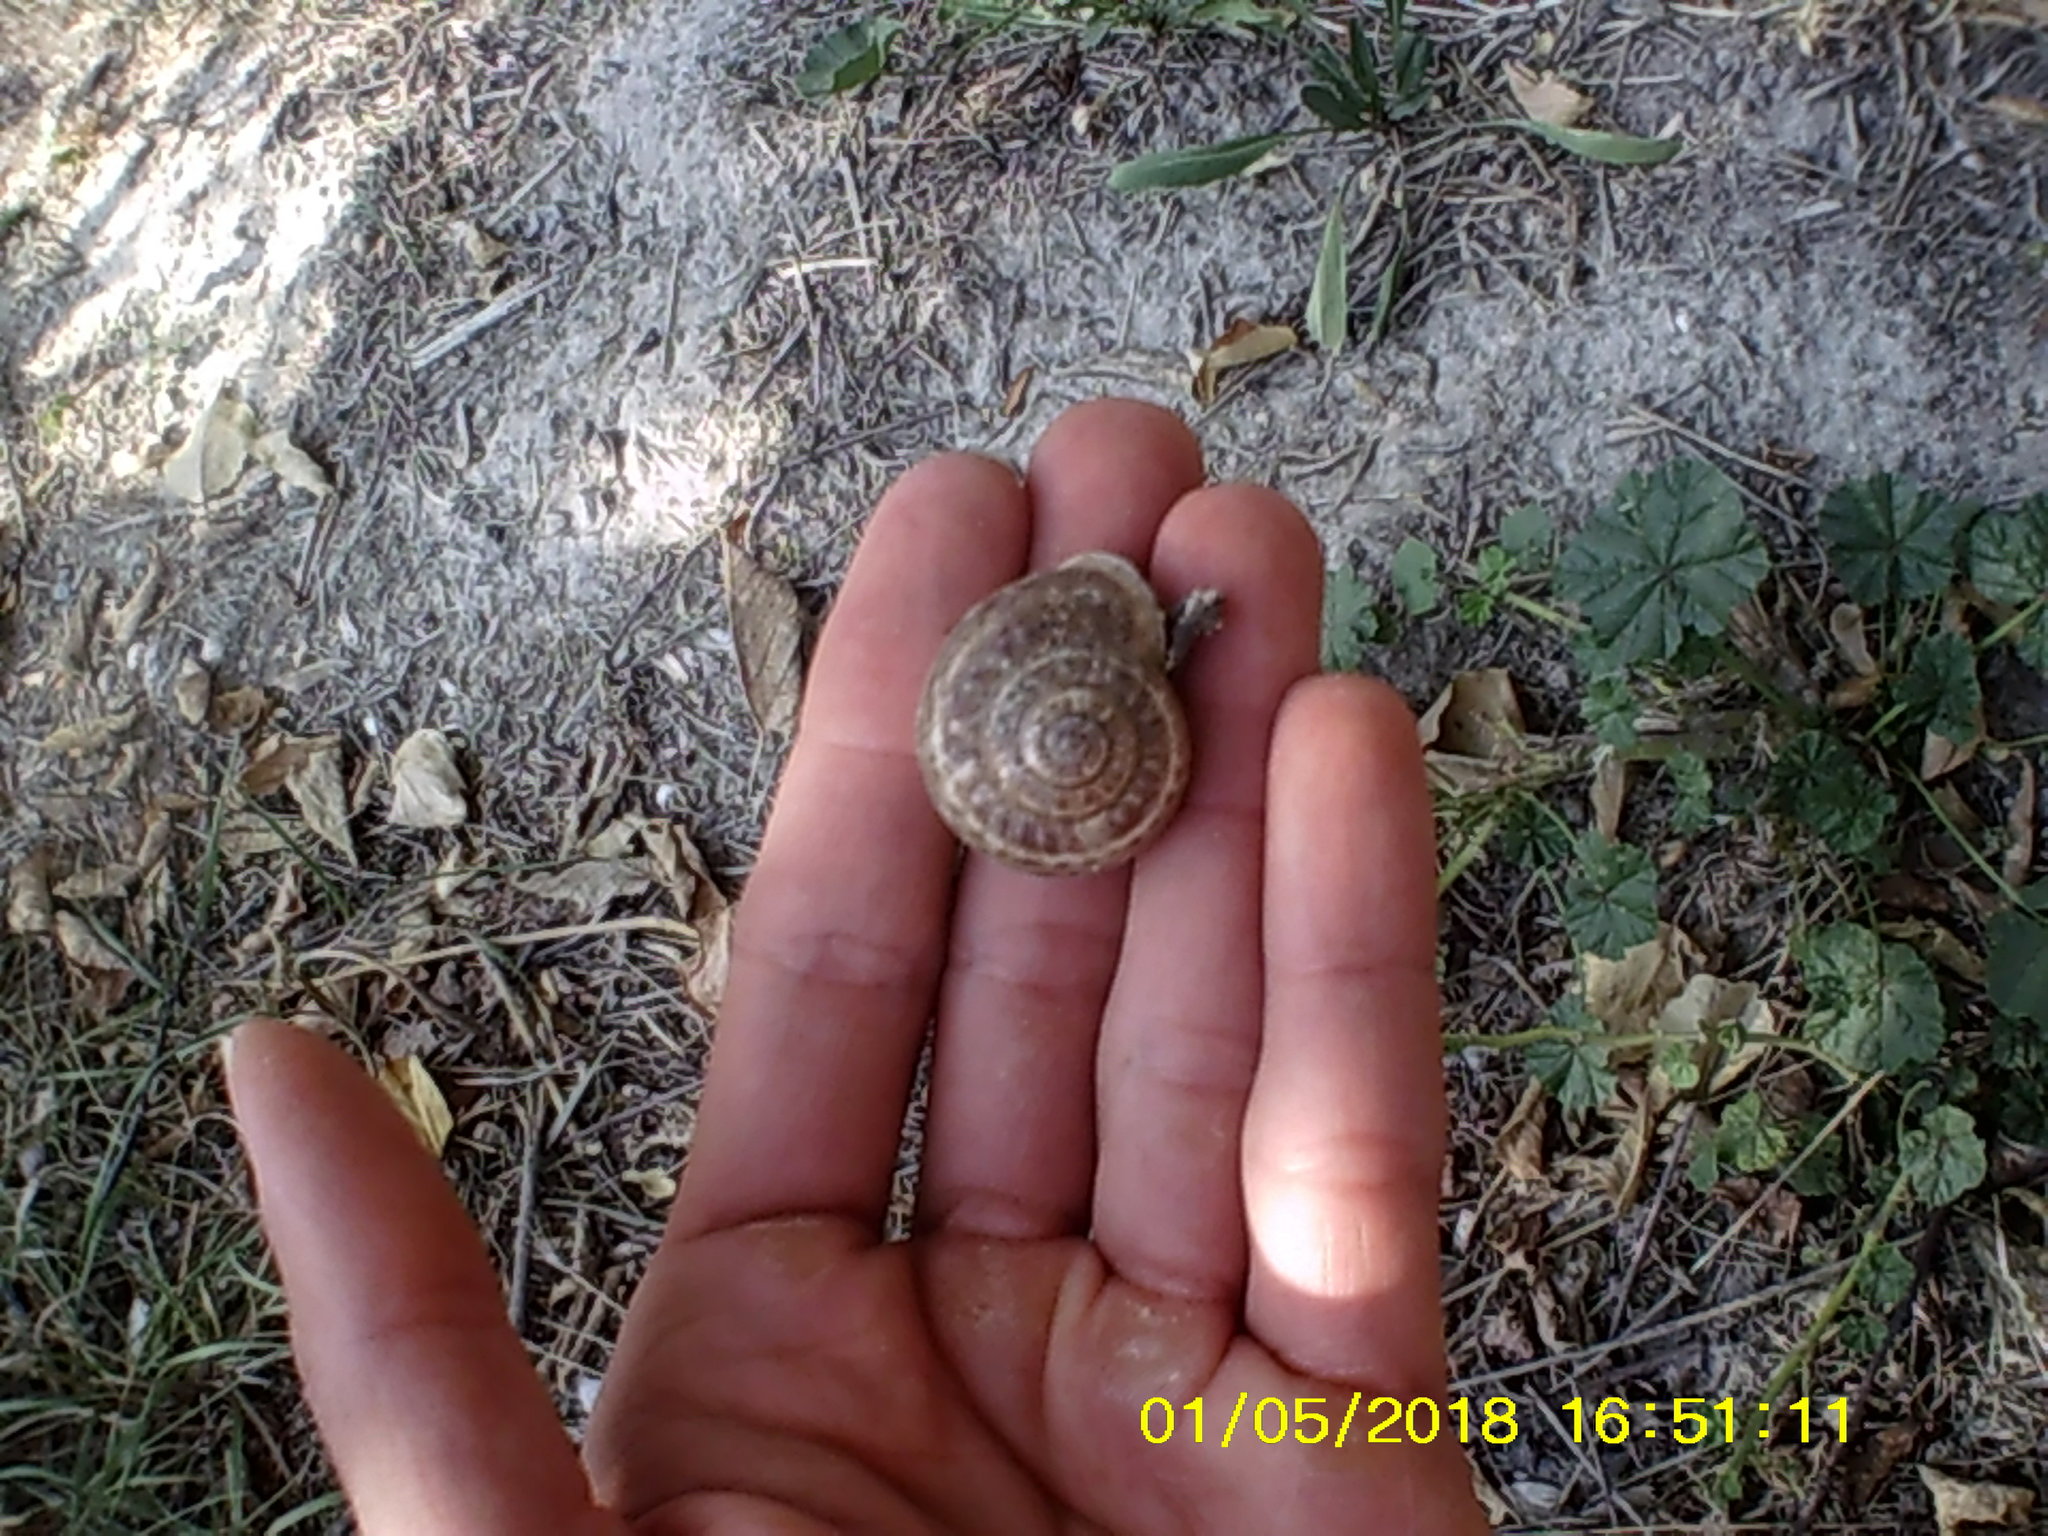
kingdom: Animalia
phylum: Mollusca
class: Gastropoda
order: Stylommatophora
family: Helicidae
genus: Eobania
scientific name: Eobania vermiculata
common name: Chocolateband snail
